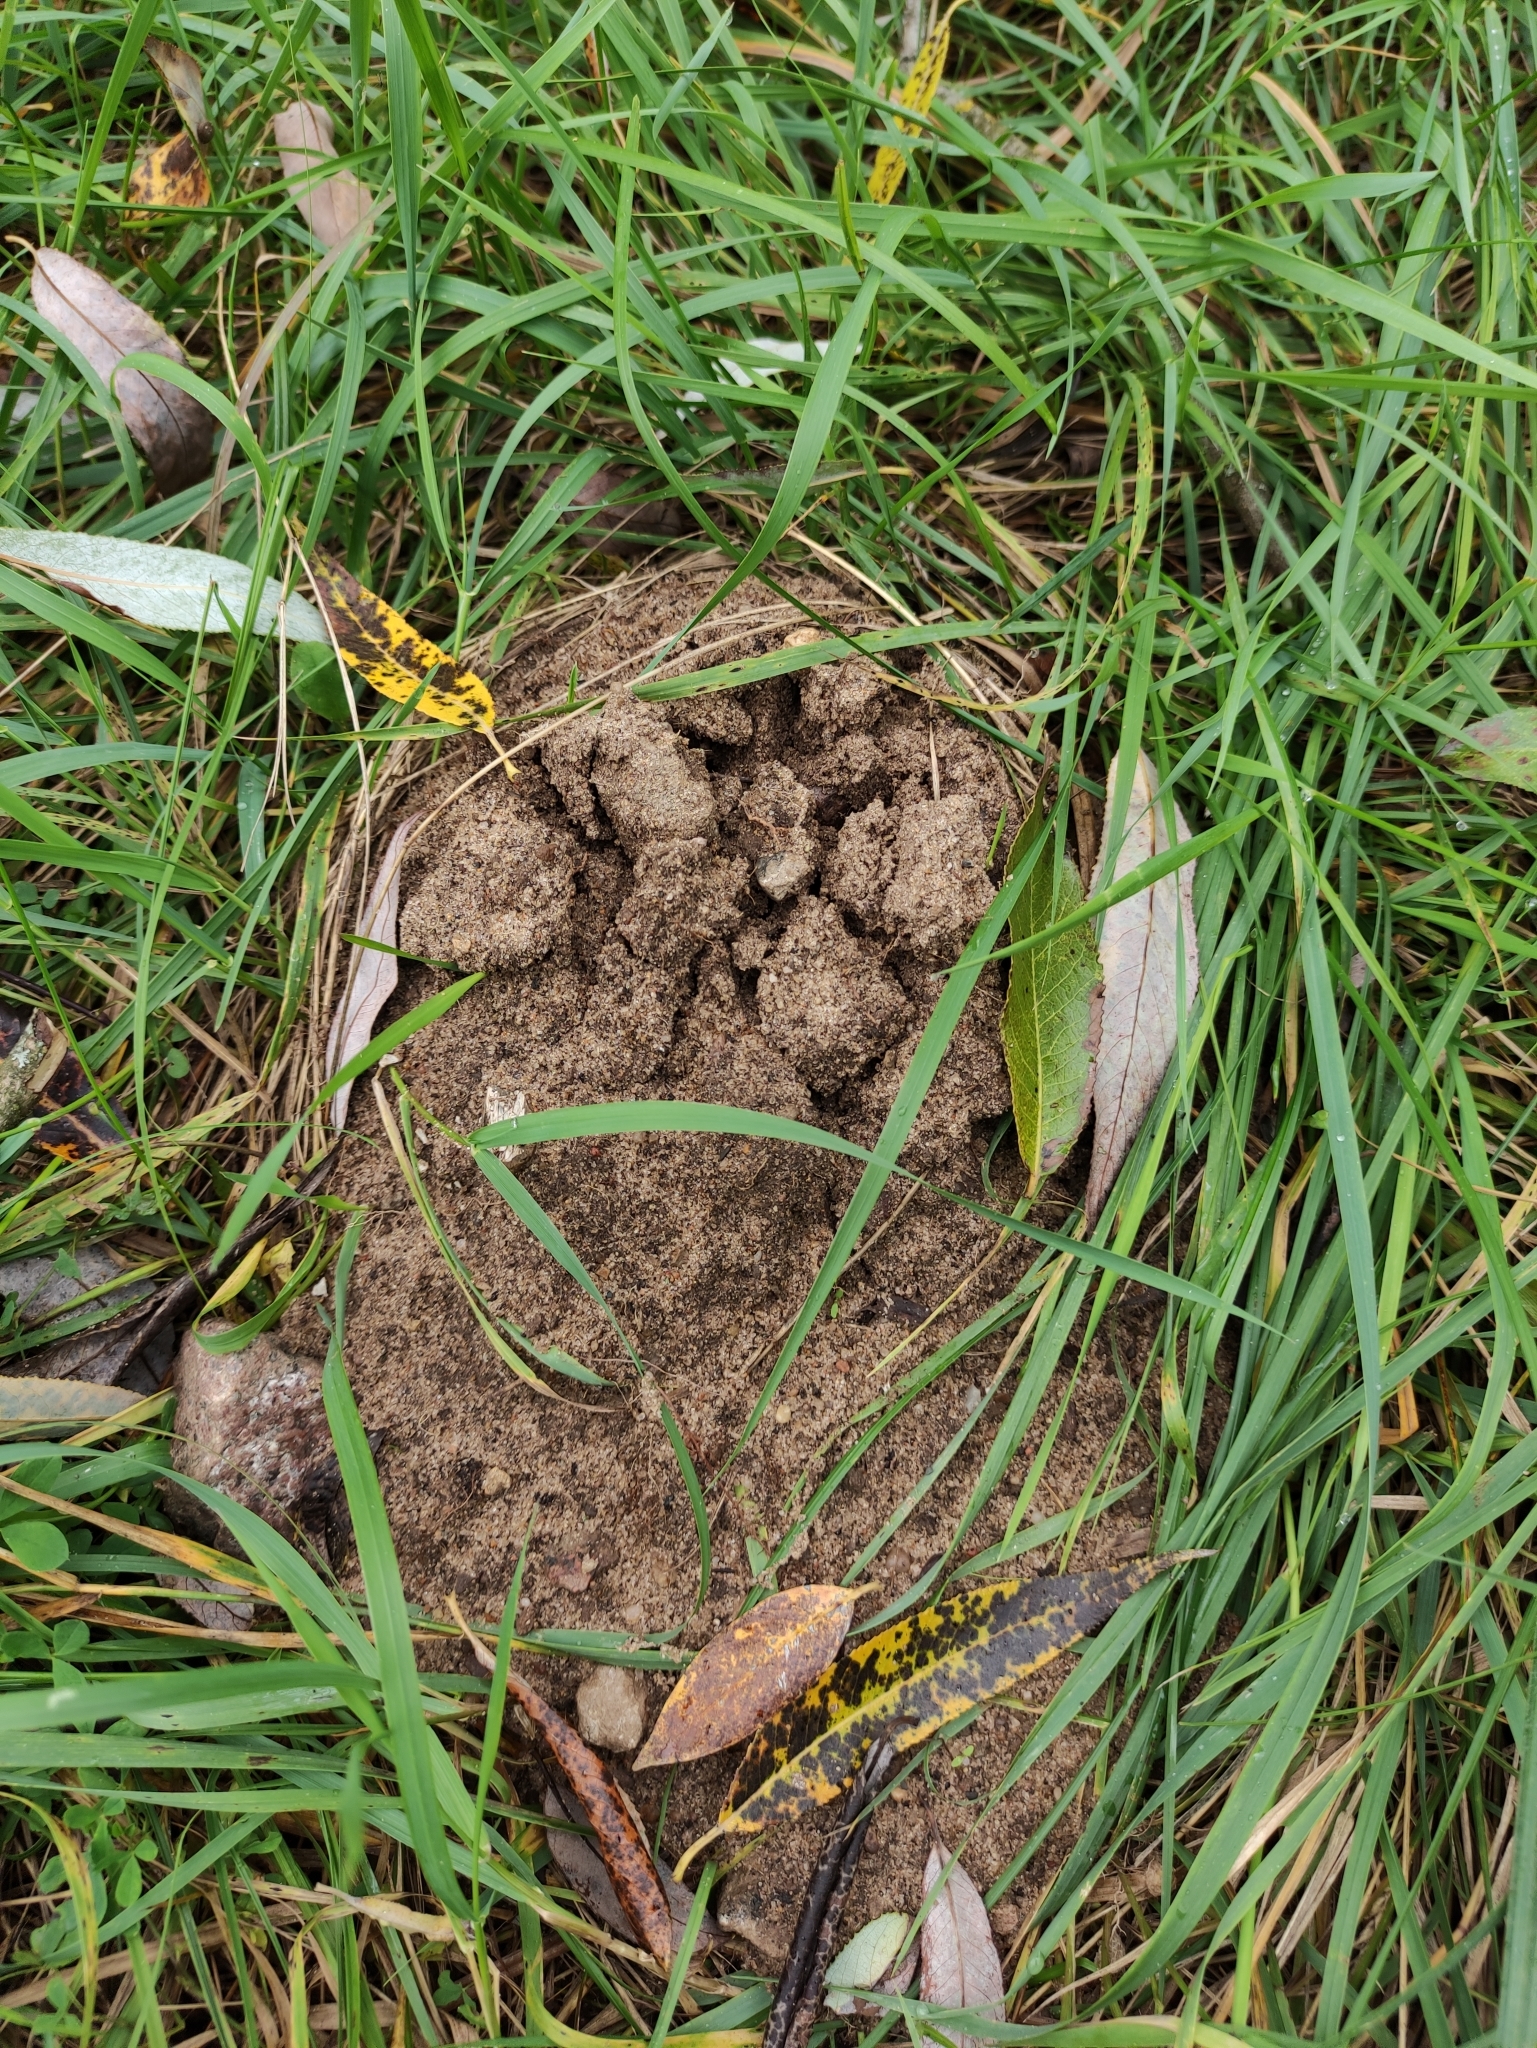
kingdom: Animalia
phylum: Chordata
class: Mammalia
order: Soricomorpha
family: Talpidae
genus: Talpa
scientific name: Talpa europaea
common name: European mole
